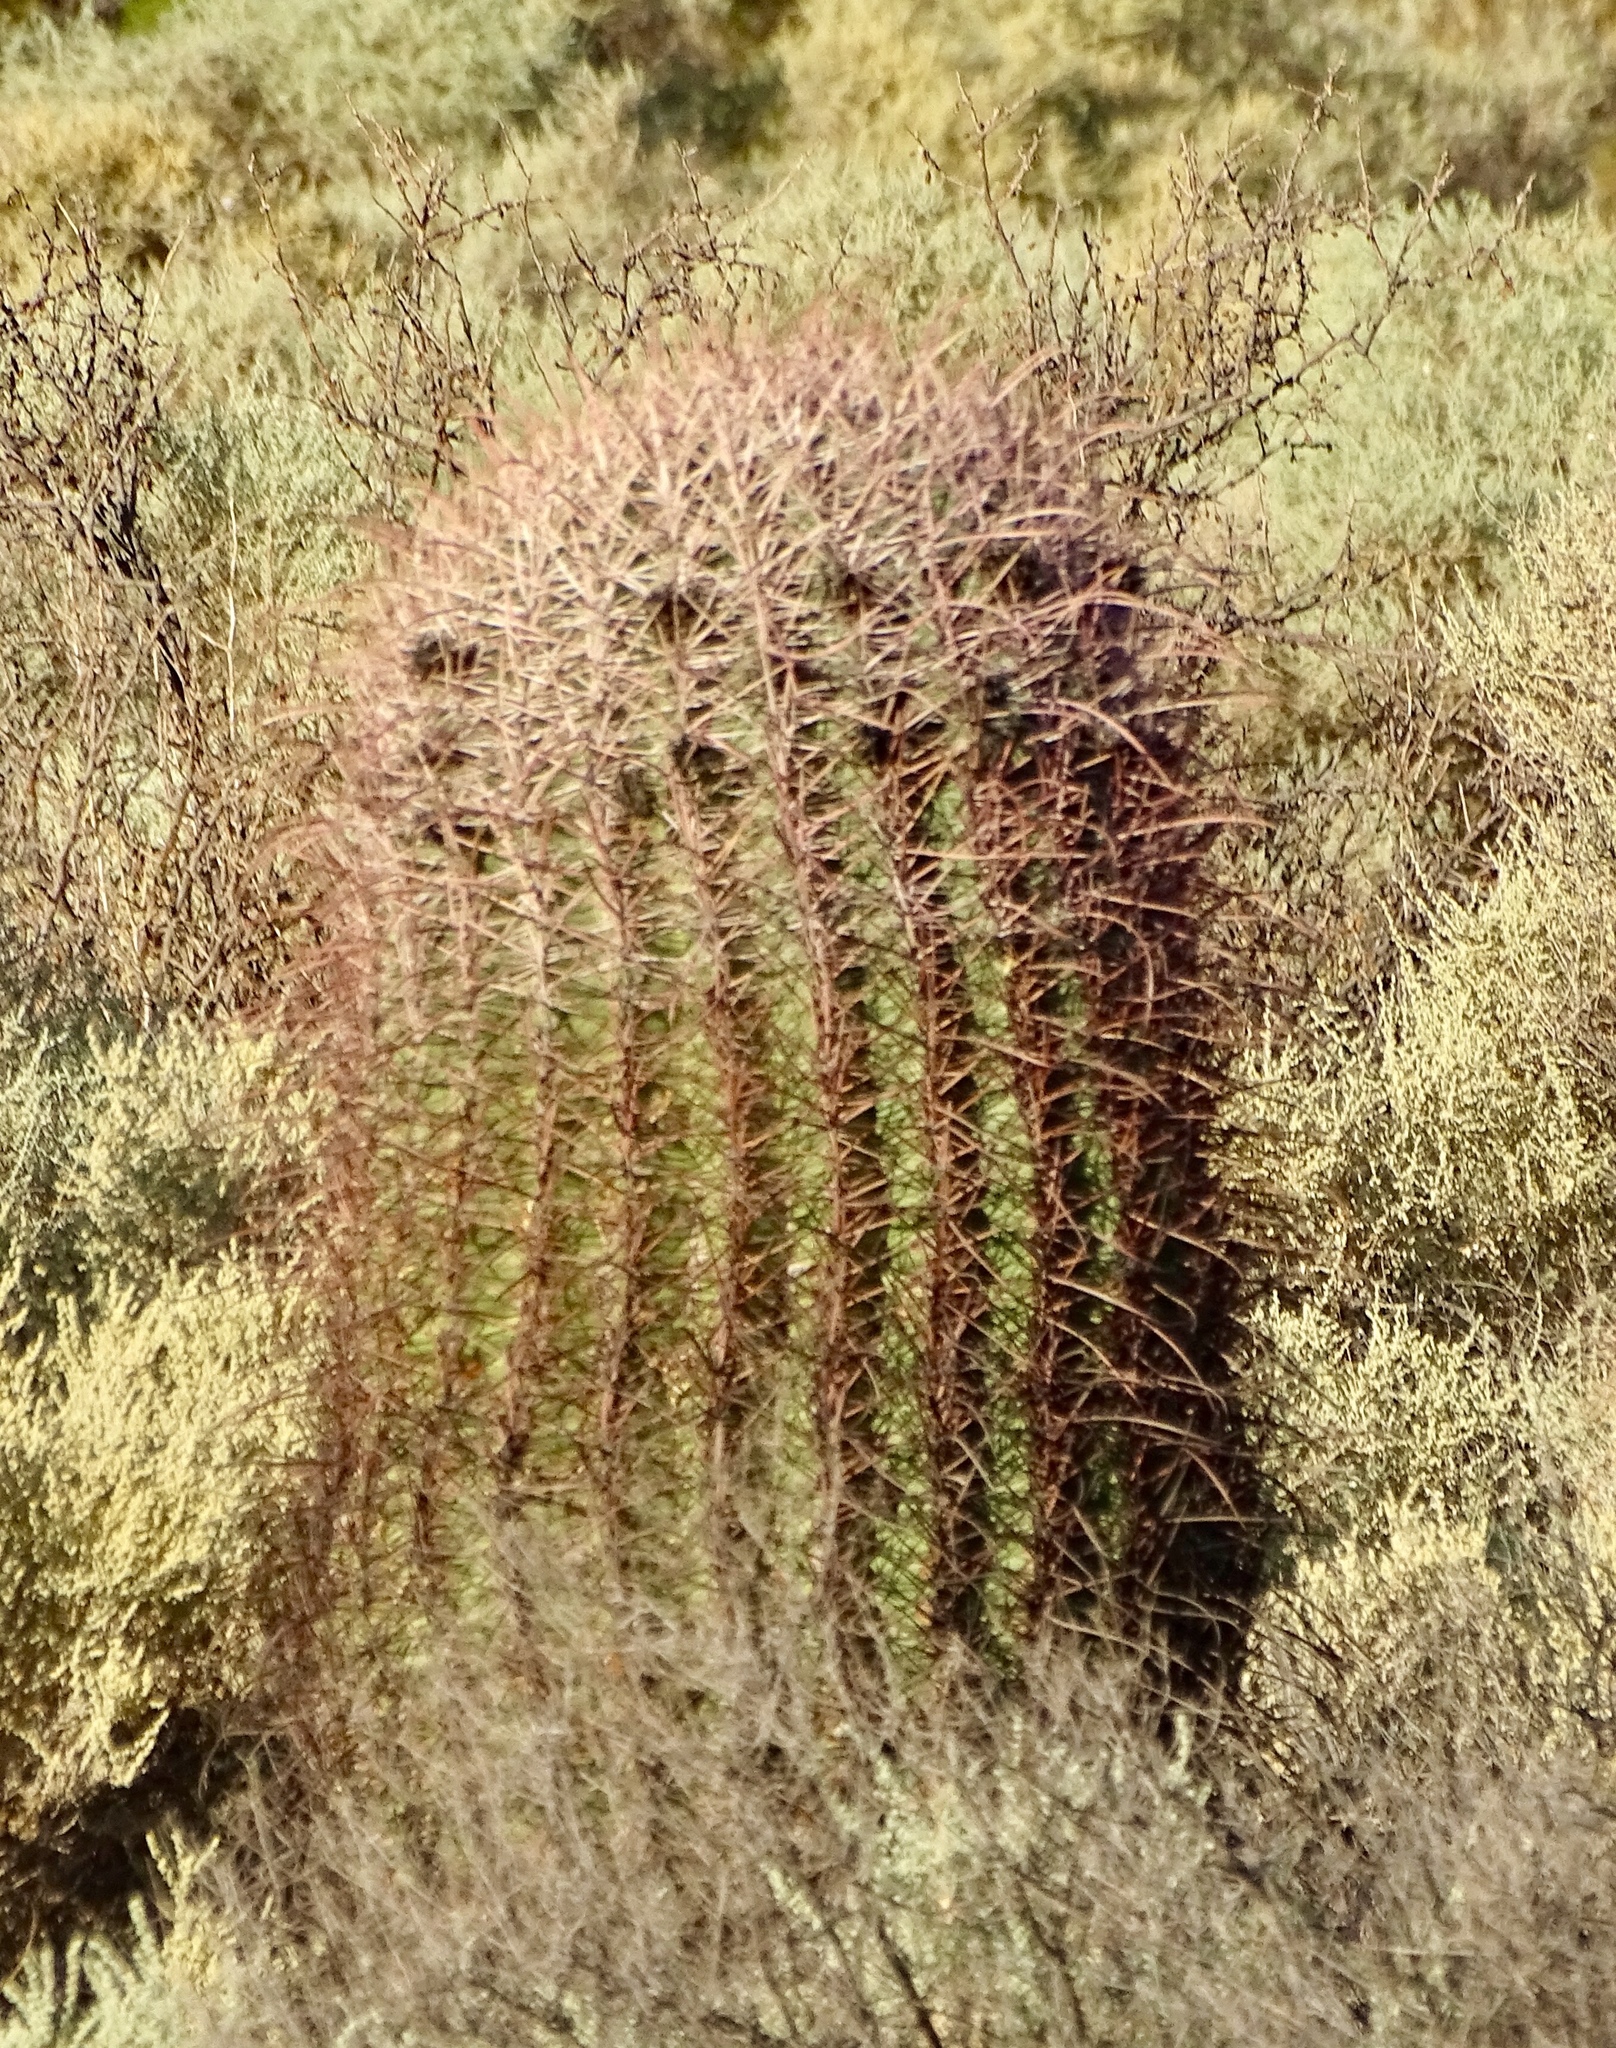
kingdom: Plantae
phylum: Tracheophyta
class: Magnoliopsida
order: Caryophyllales
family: Cactaceae
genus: Ferocactus
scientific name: Ferocactus cylindraceus
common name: California barrel cactus
